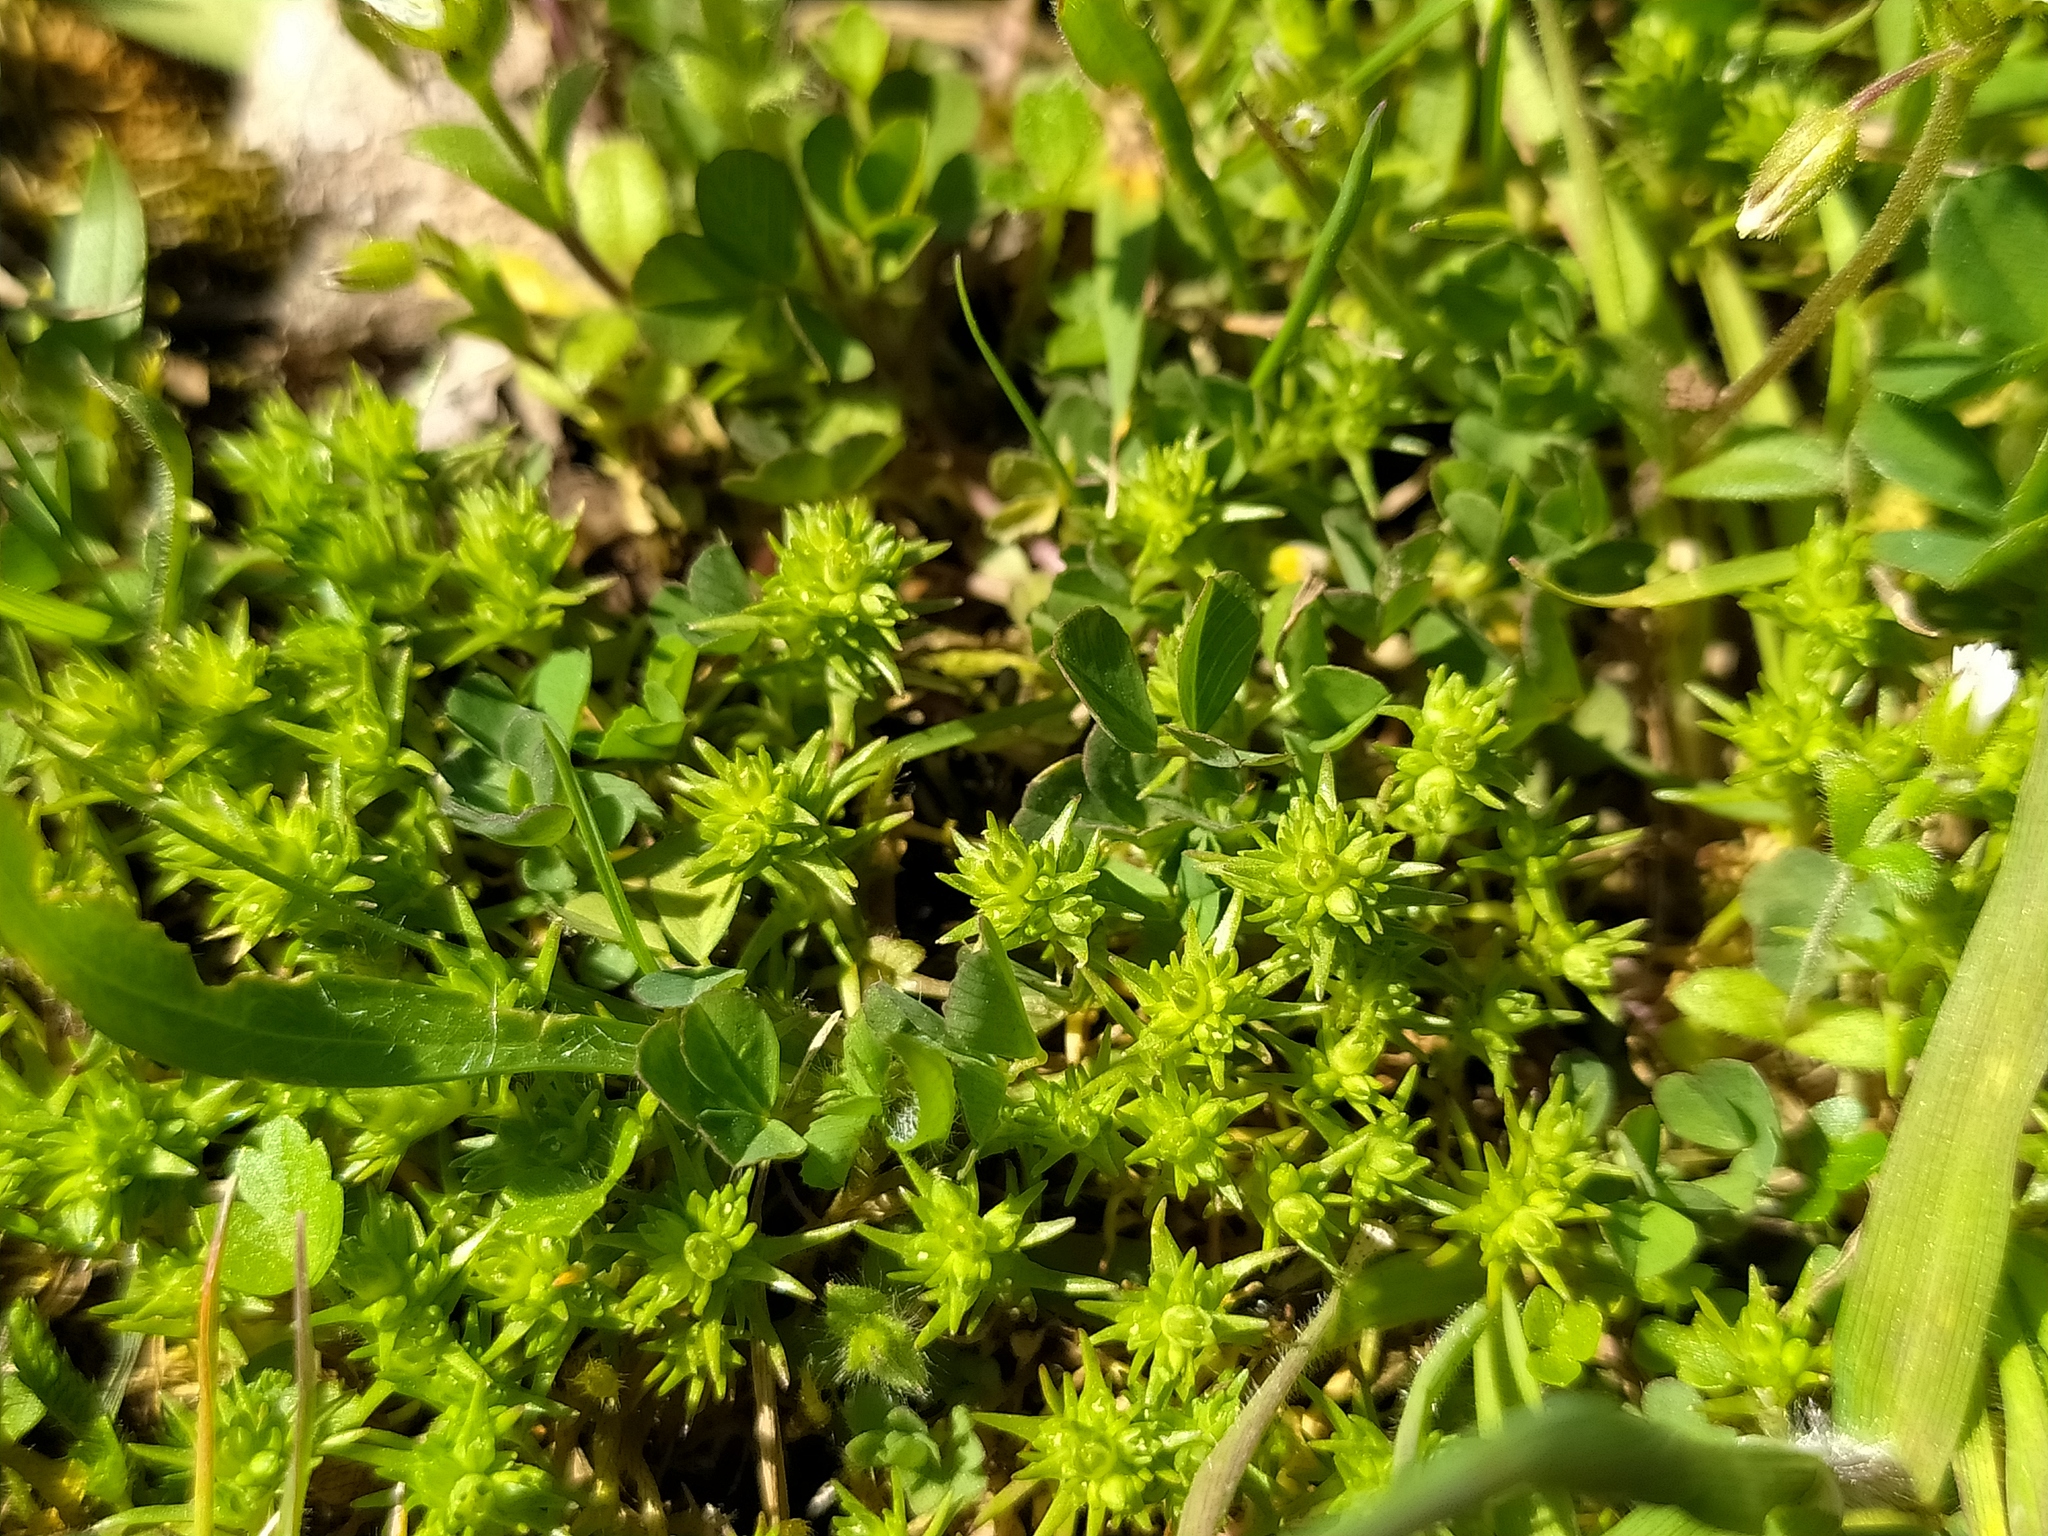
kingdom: Plantae
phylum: Tracheophyta
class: Magnoliopsida
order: Caryophyllales
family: Caryophyllaceae
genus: Scleranthus
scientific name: Scleranthus verticillatus
